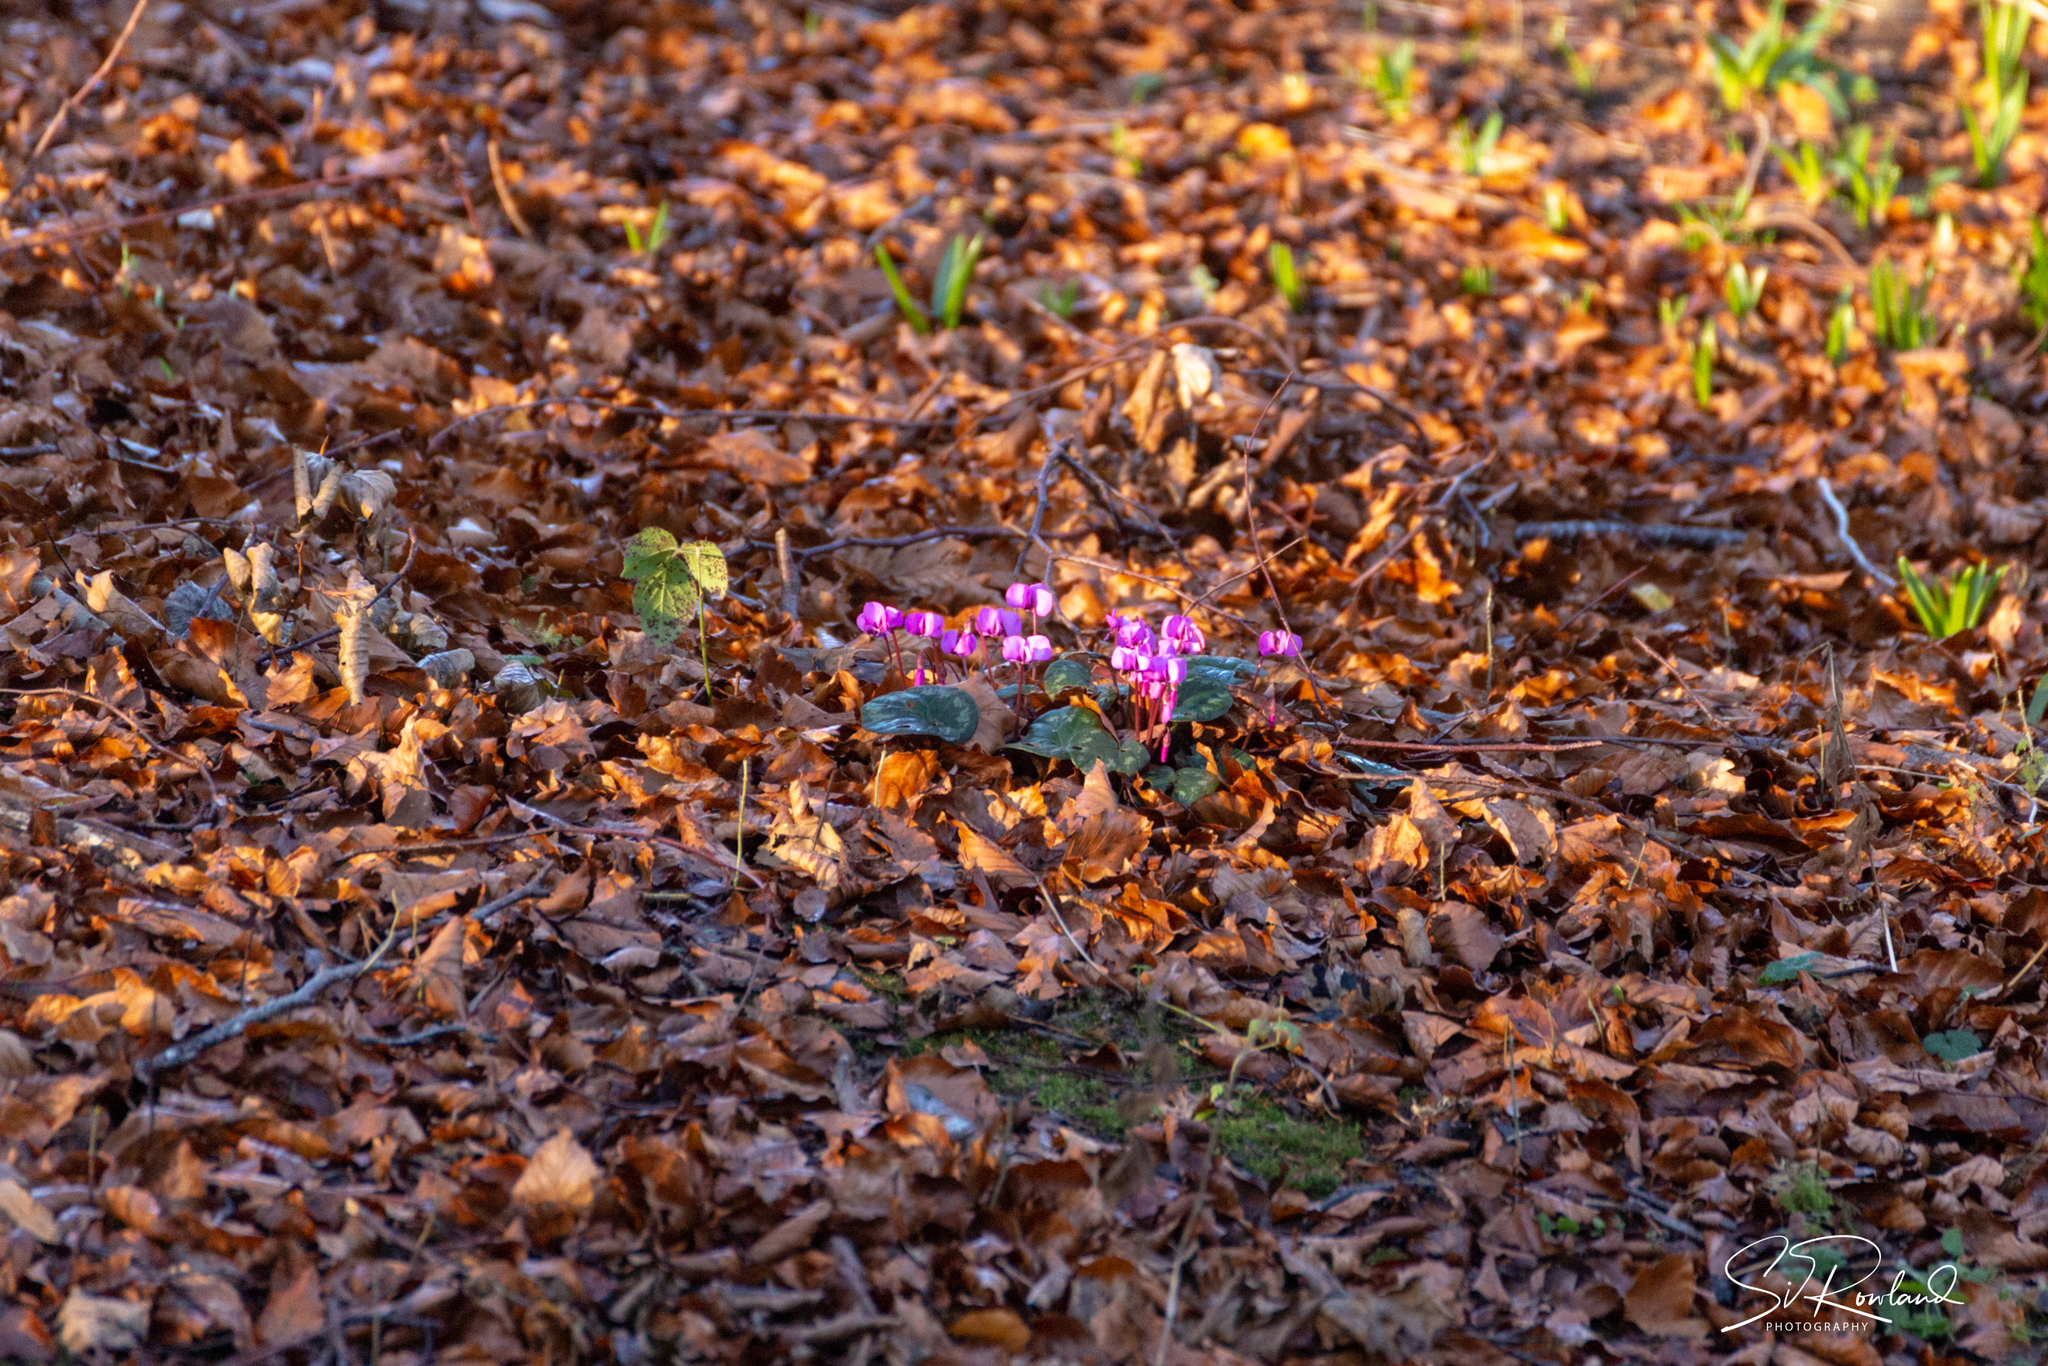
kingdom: Plantae
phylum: Tracheophyta
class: Magnoliopsida
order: Ericales
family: Primulaceae
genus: Cyclamen
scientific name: Cyclamen coum
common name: Eastern sowbread
